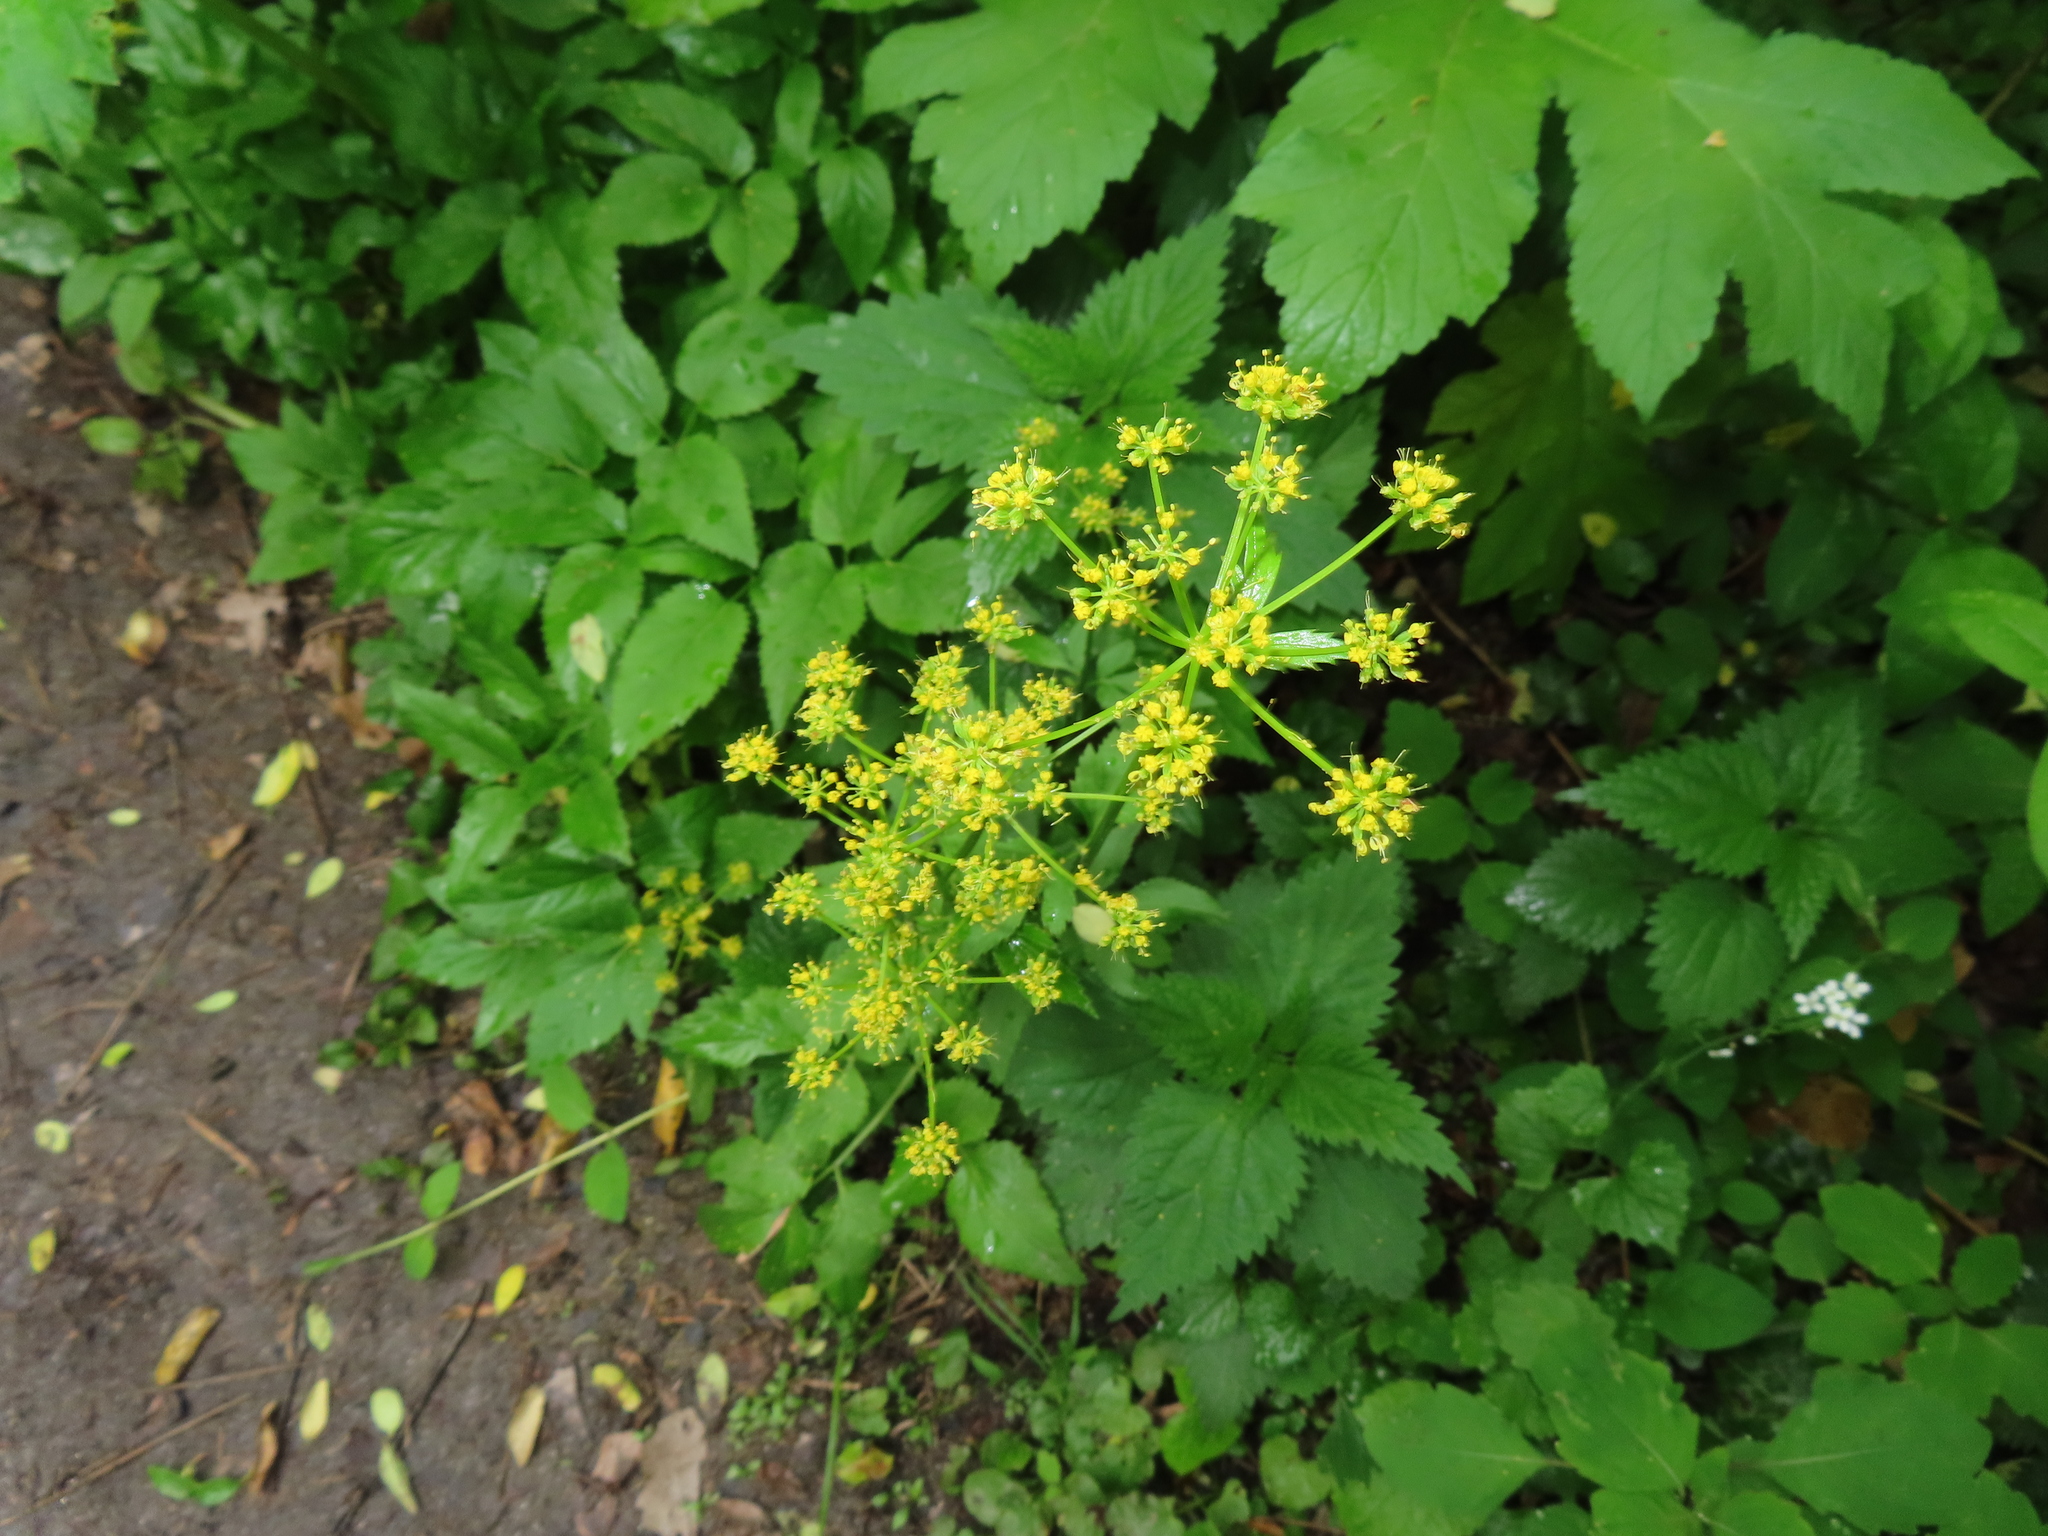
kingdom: Plantae
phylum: Tracheophyta
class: Magnoliopsida
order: Apiales
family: Apiaceae
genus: Zizia
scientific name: Zizia aurea
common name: Golden alexanders
